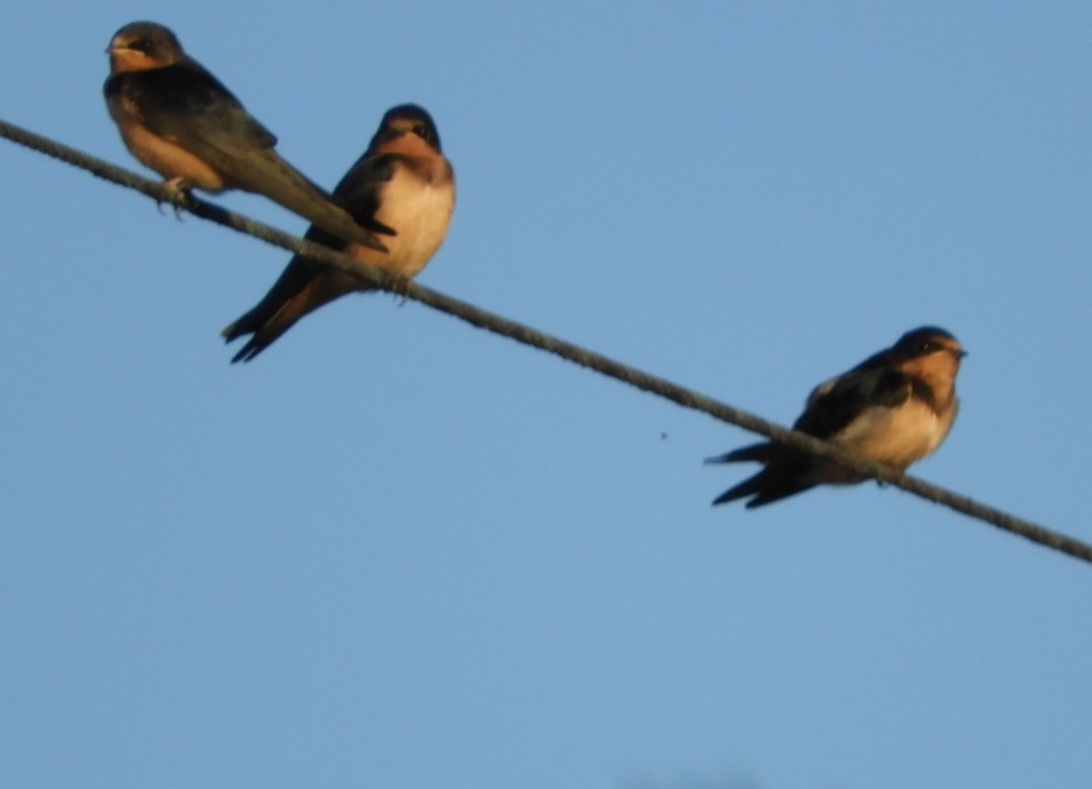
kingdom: Animalia
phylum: Chordata
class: Aves
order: Passeriformes
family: Hirundinidae
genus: Hirundo
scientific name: Hirundo rustica
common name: Barn swallow
